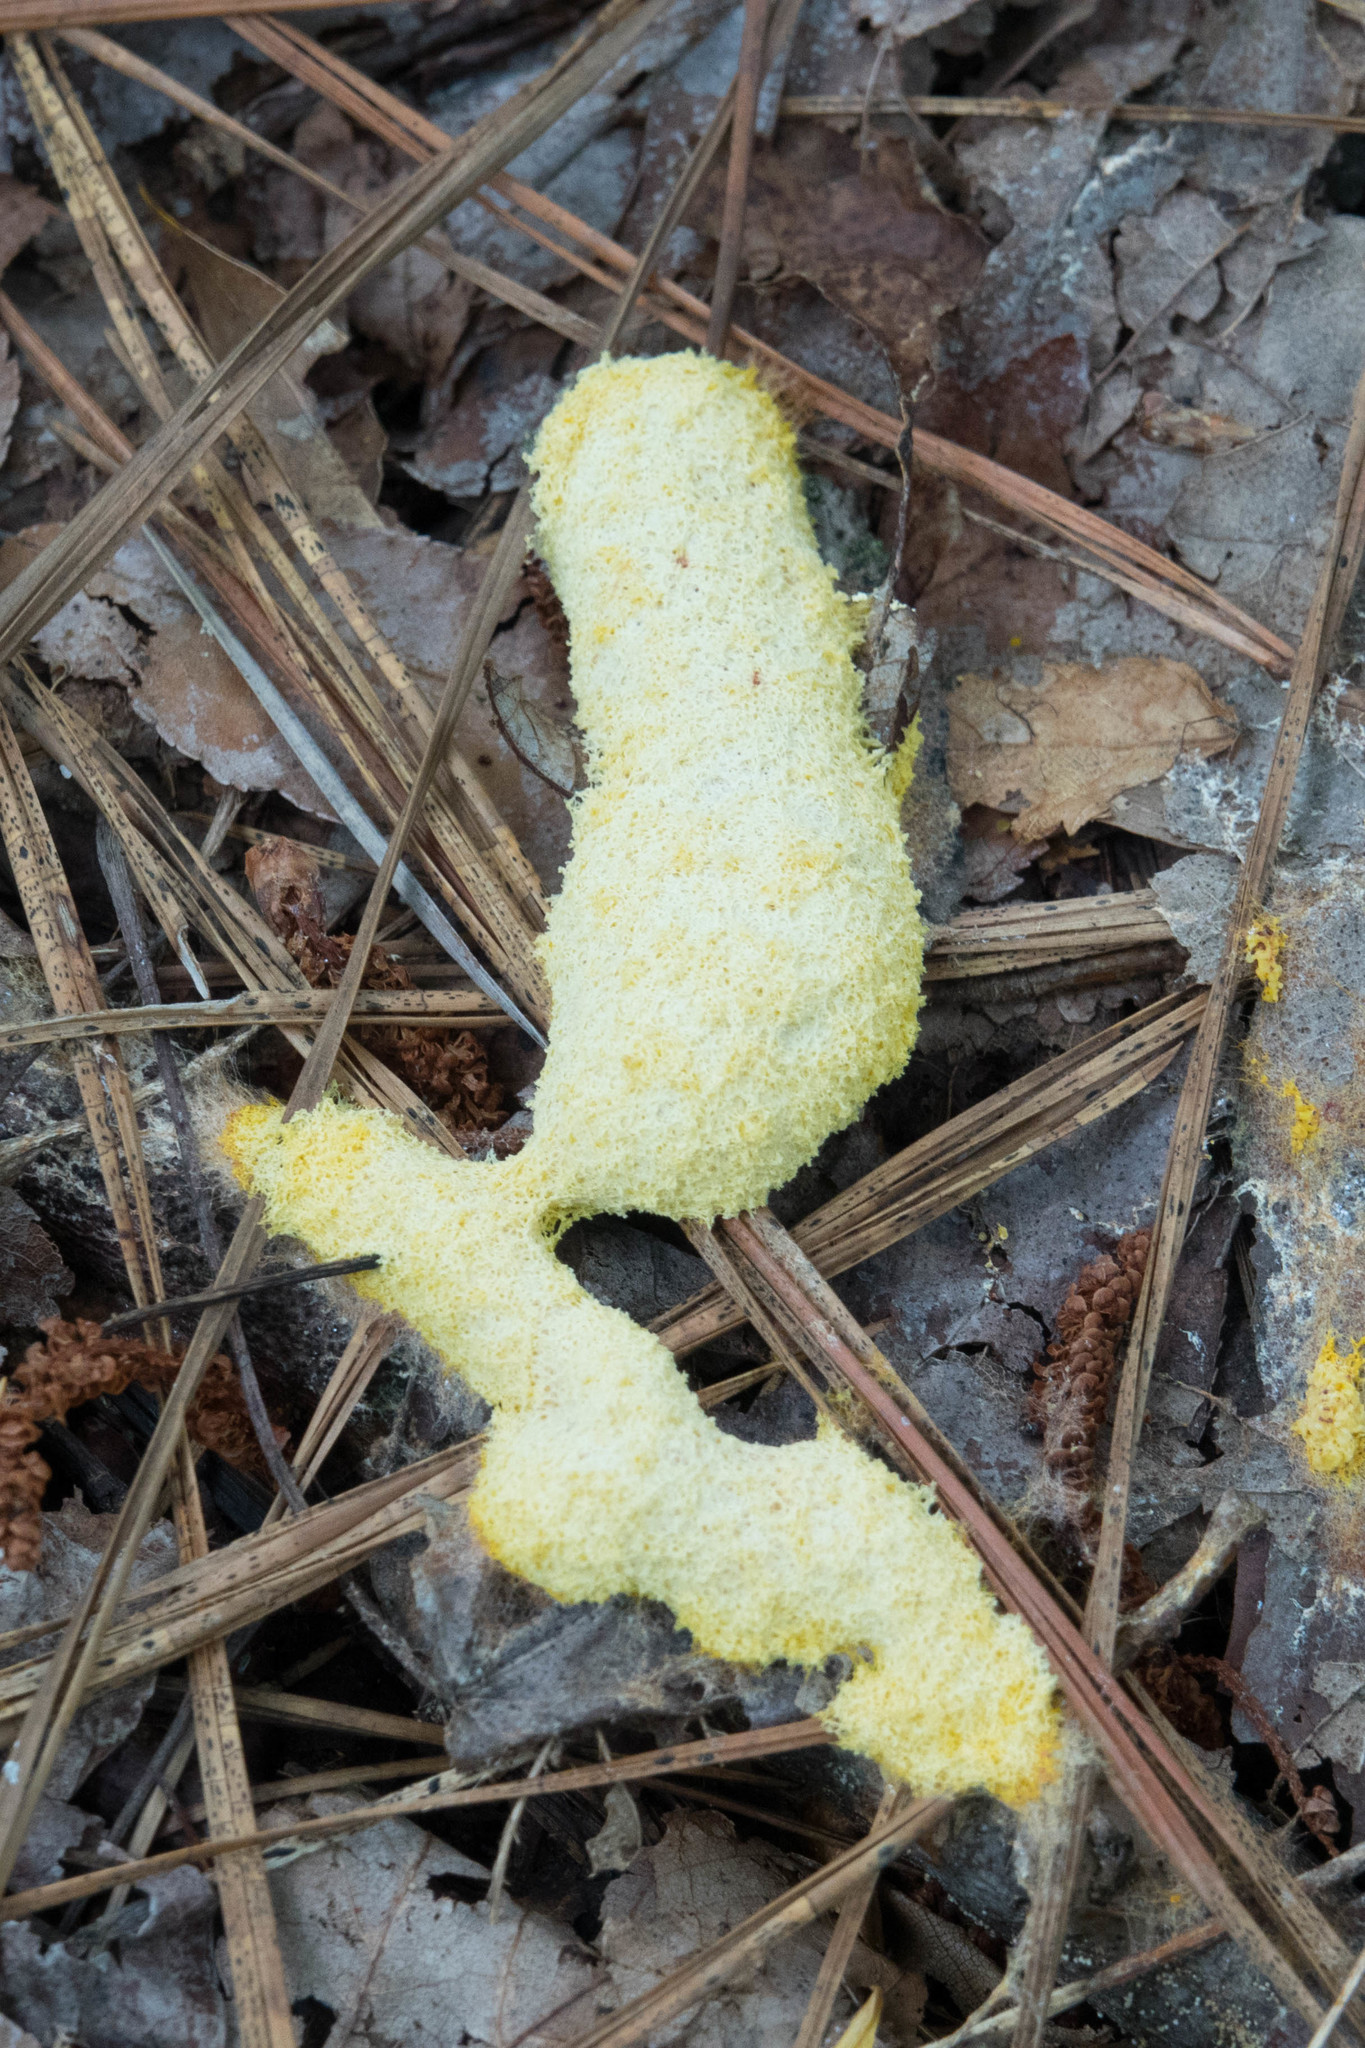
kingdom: Protozoa
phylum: Mycetozoa
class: Myxomycetes
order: Physarales
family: Physaraceae
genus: Fuligo
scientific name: Fuligo septica
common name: Dog vomit slime mold
